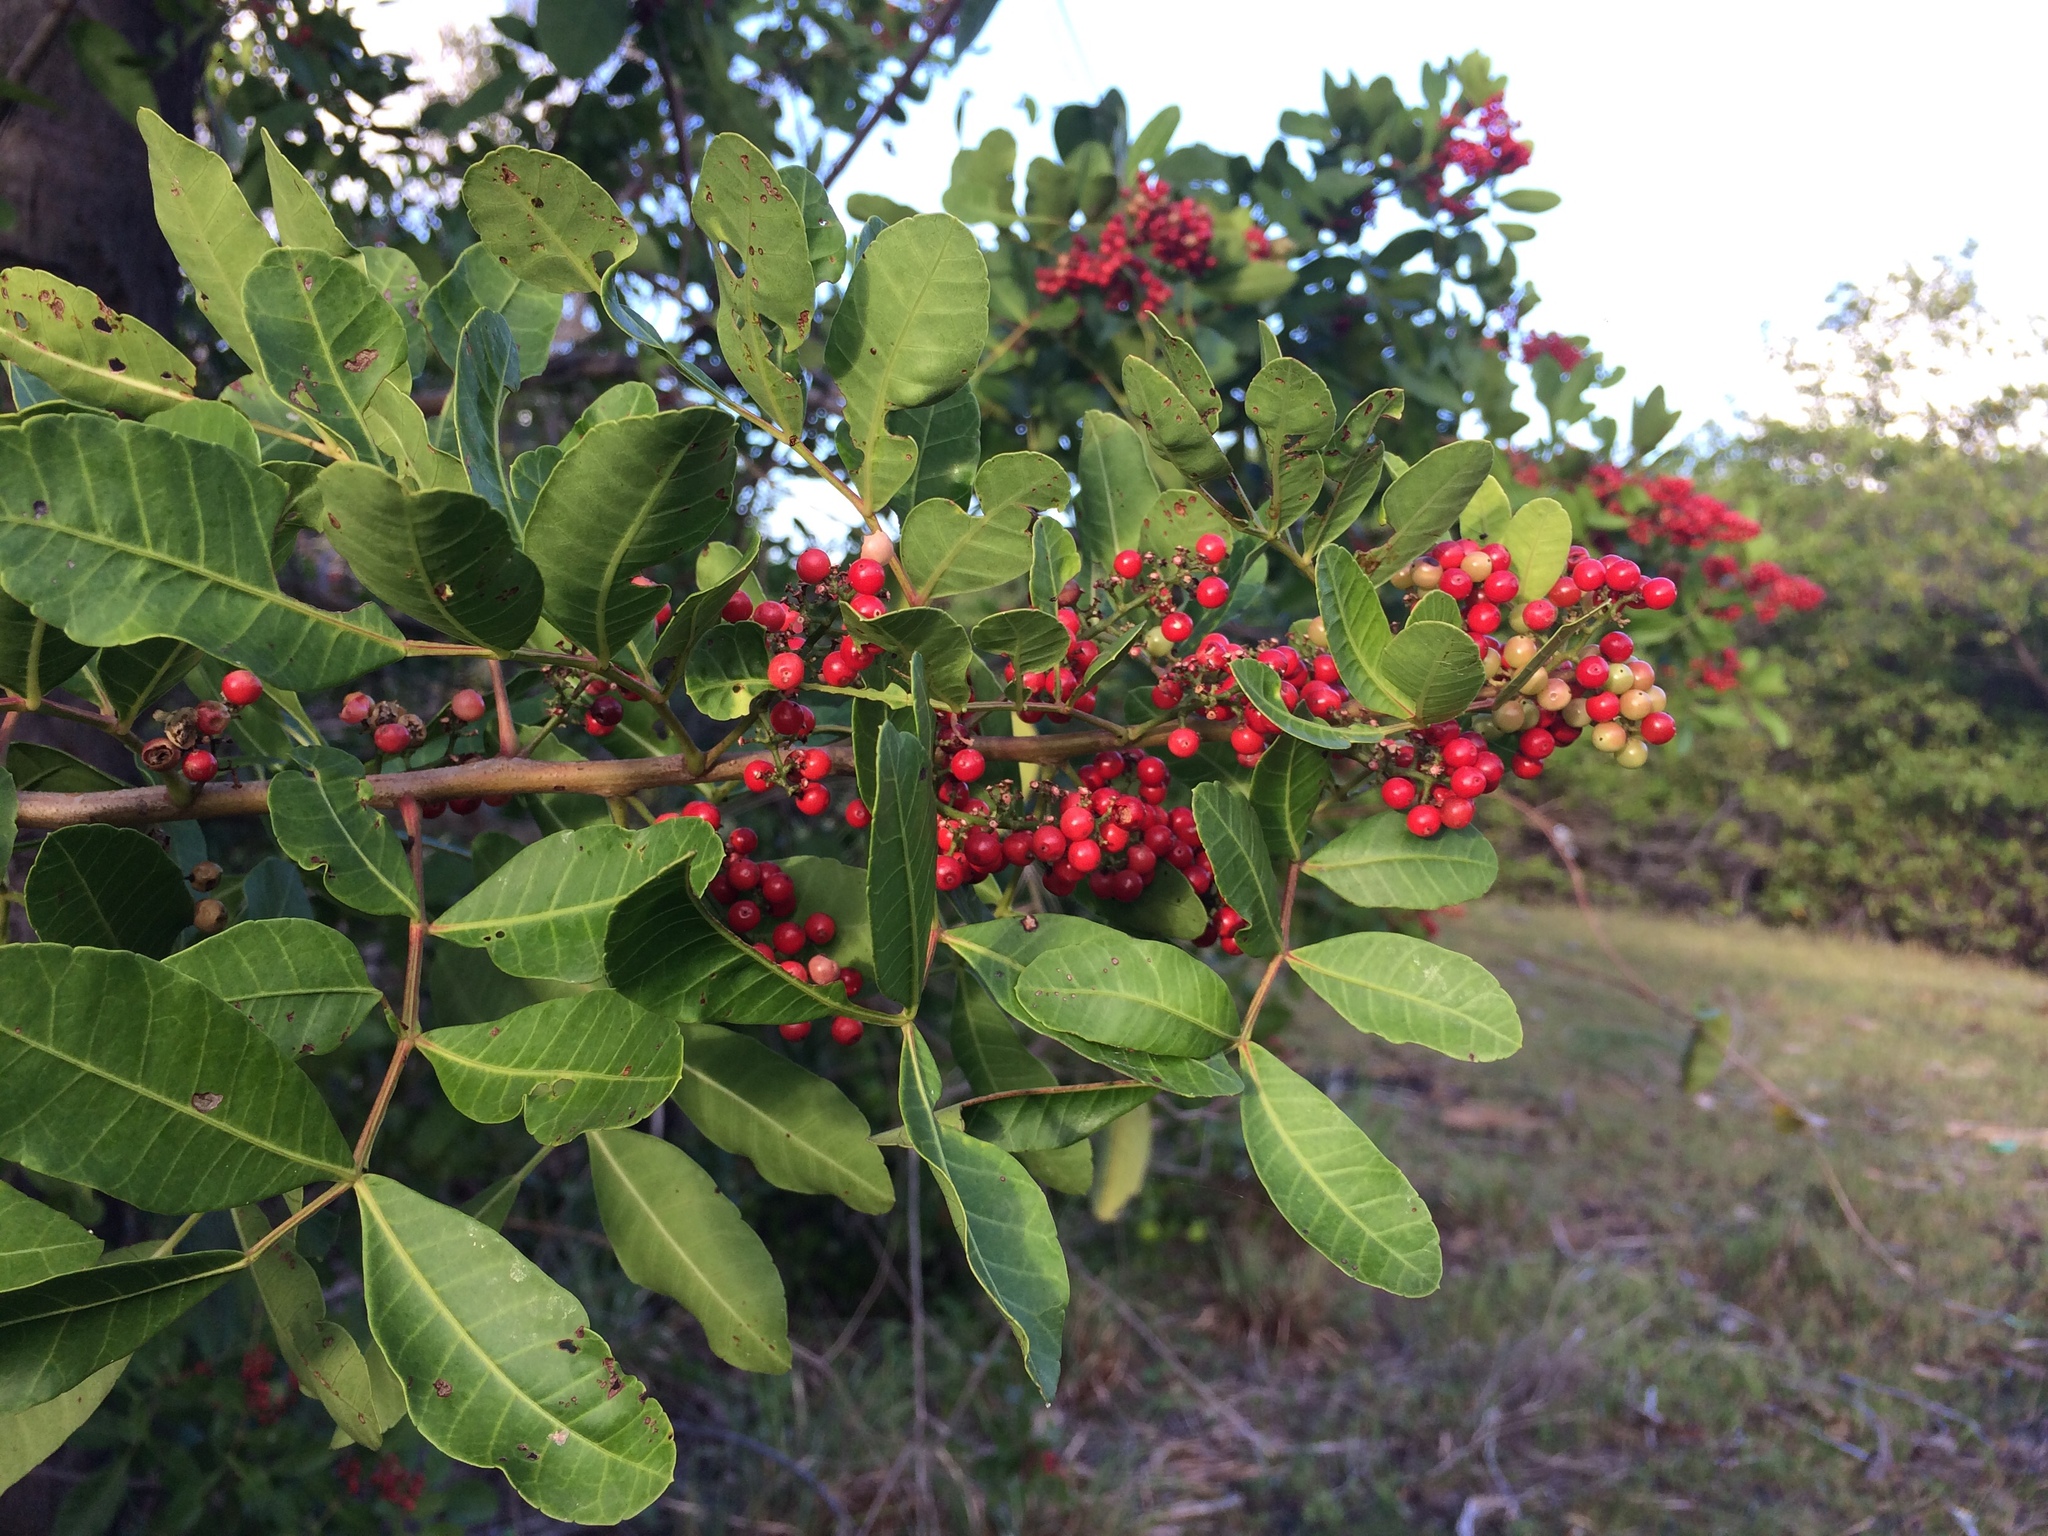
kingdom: Plantae
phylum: Tracheophyta
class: Magnoliopsida
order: Sapindales
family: Anacardiaceae
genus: Schinus
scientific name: Schinus terebinthifolia
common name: Brazilian peppertree
